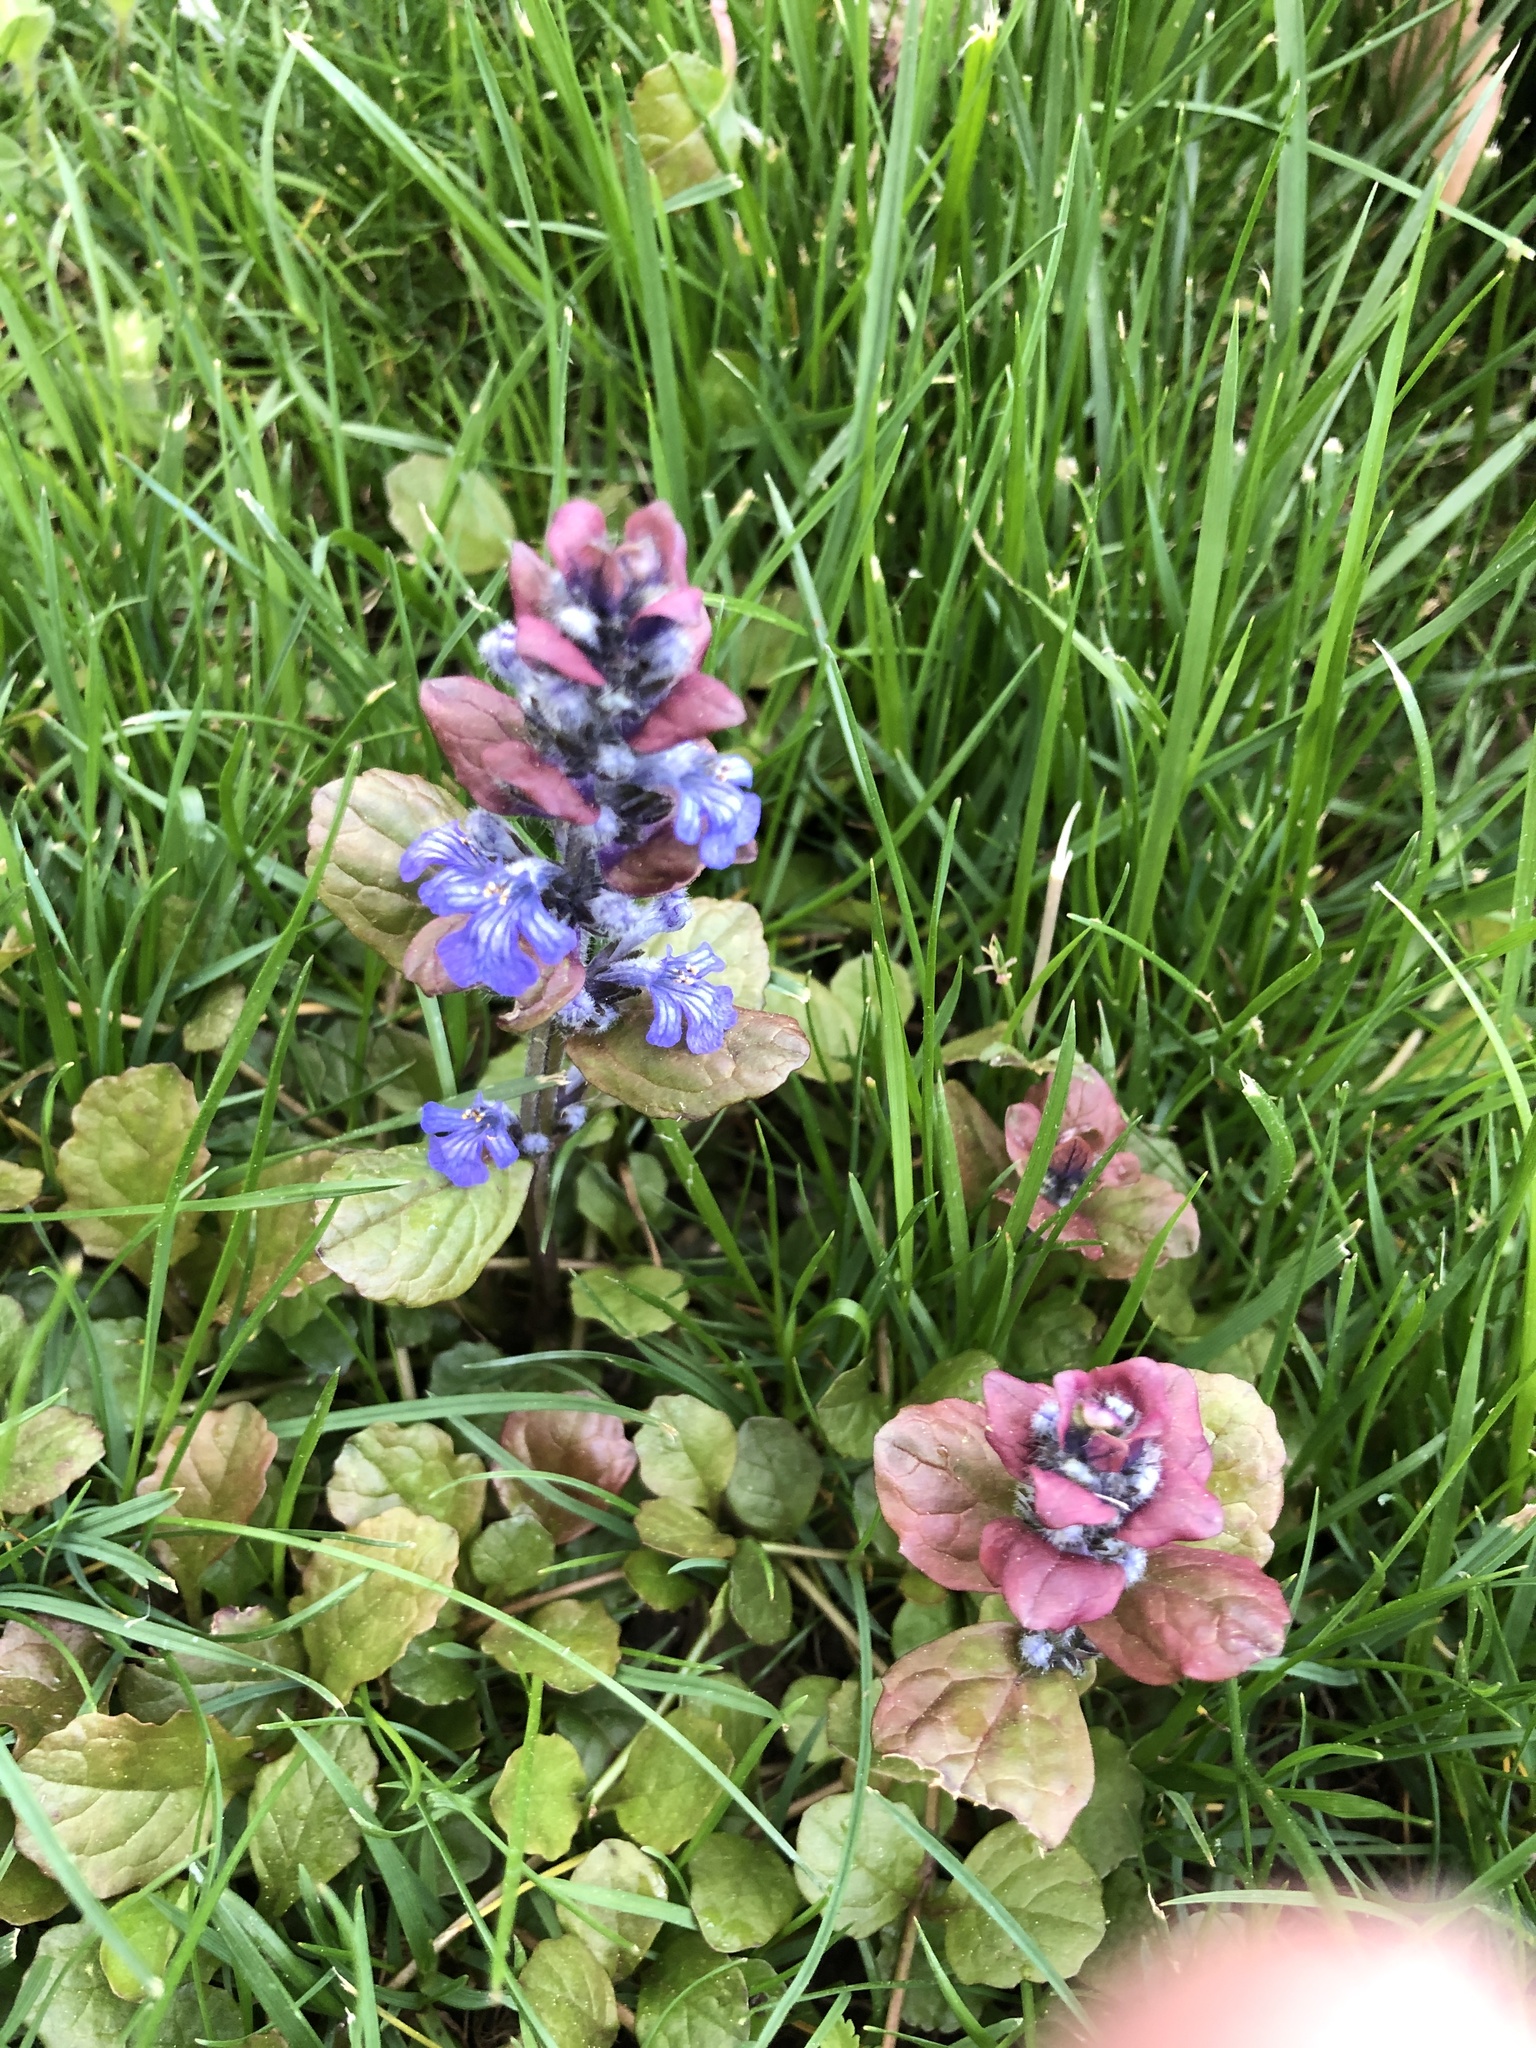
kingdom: Plantae
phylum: Tracheophyta
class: Magnoliopsida
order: Lamiales
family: Lamiaceae
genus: Ajuga
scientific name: Ajuga reptans
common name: Bugle
